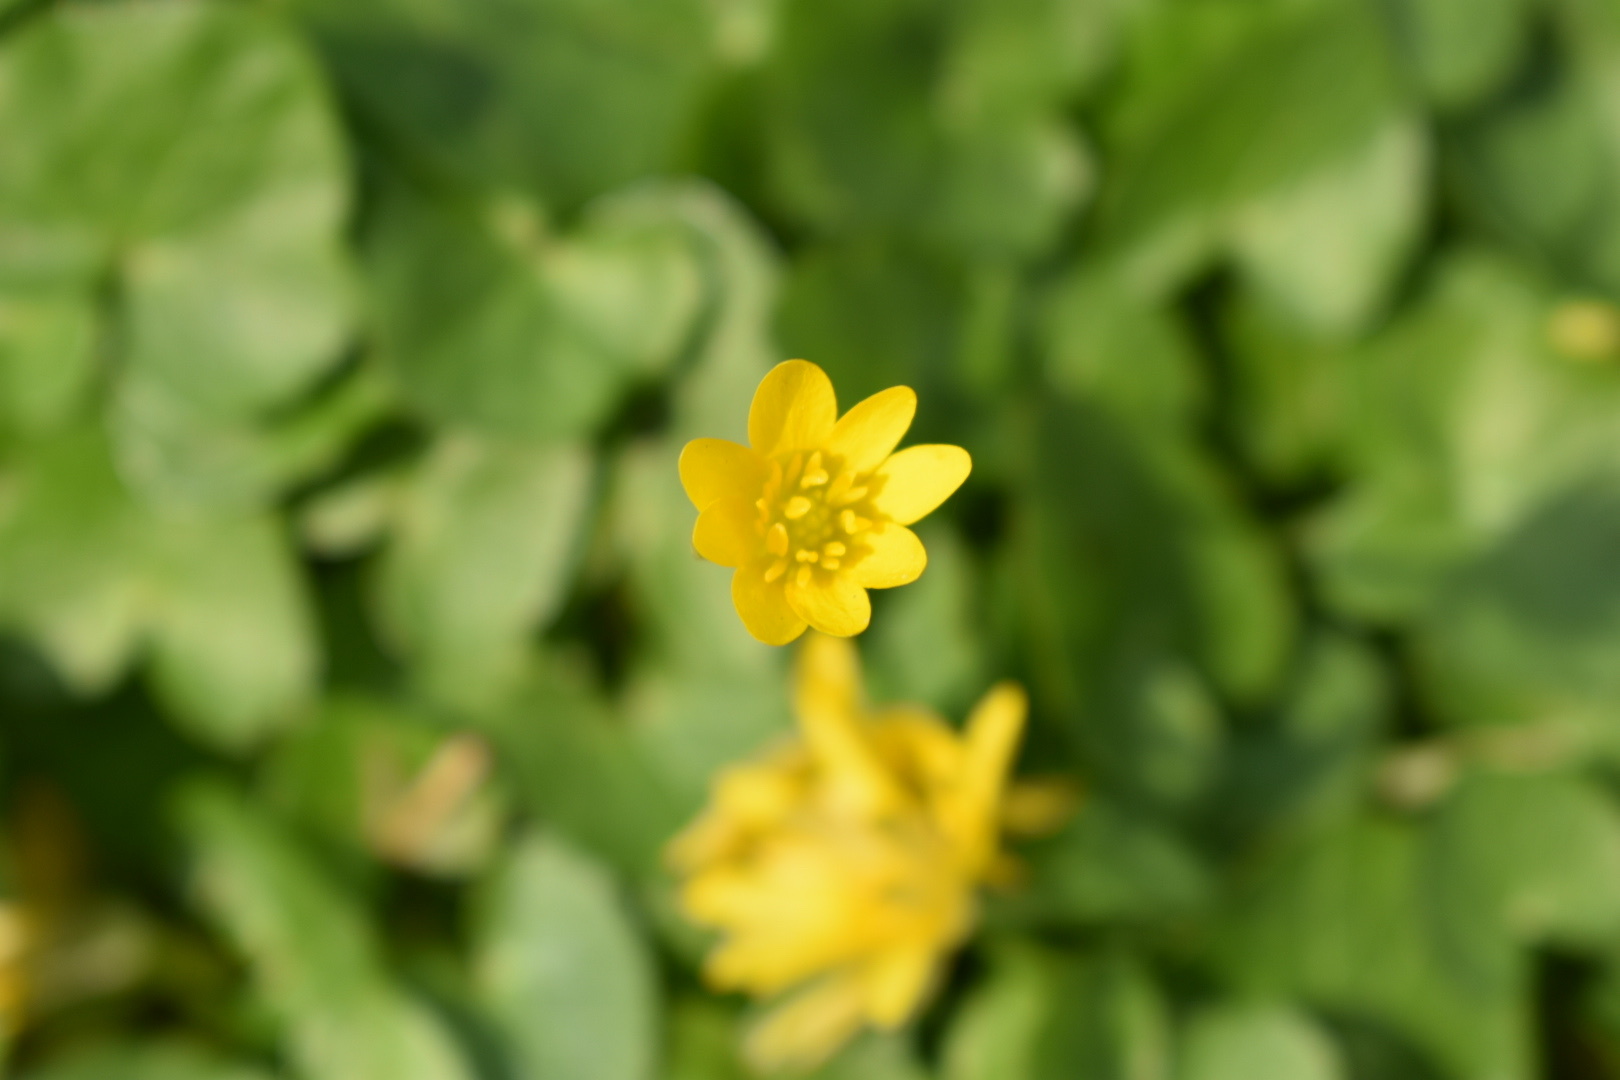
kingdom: Plantae
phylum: Tracheophyta
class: Magnoliopsida
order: Ranunculales
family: Ranunculaceae
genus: Ficaria
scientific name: Ficaria verna
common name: Lesser celandine
